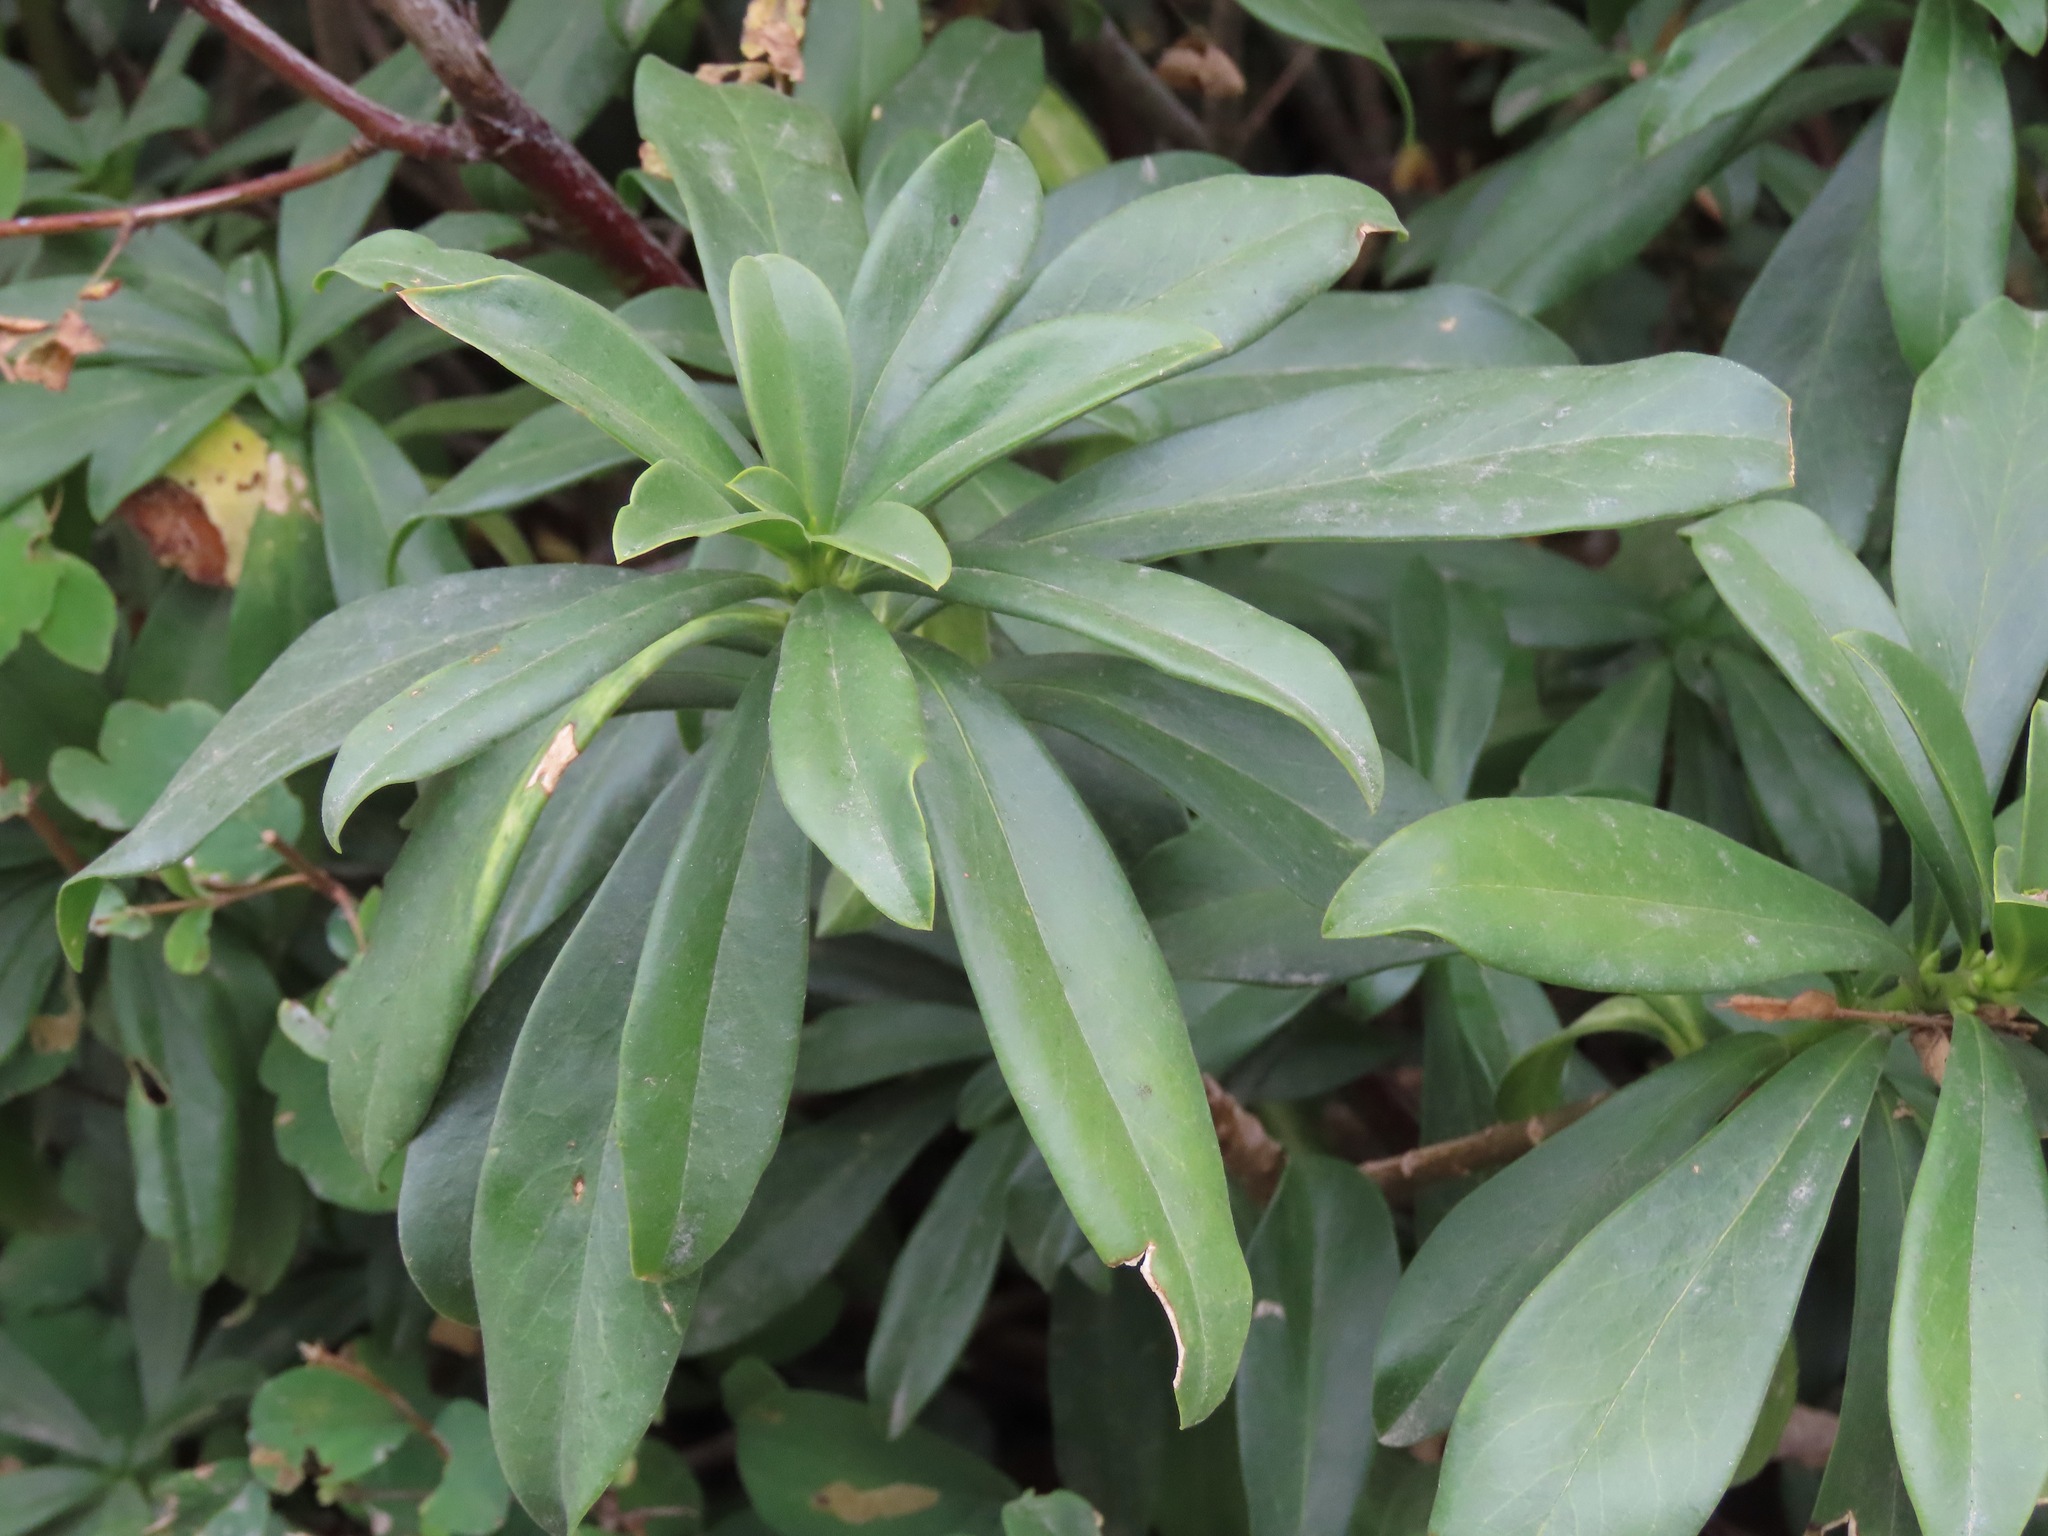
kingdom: Plantae
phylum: Tracheophyta
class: Magnoliopsida
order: Malvales
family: Thymelaeaceae
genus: Daphne
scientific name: Daphne laureola
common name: Spurge-laurel
